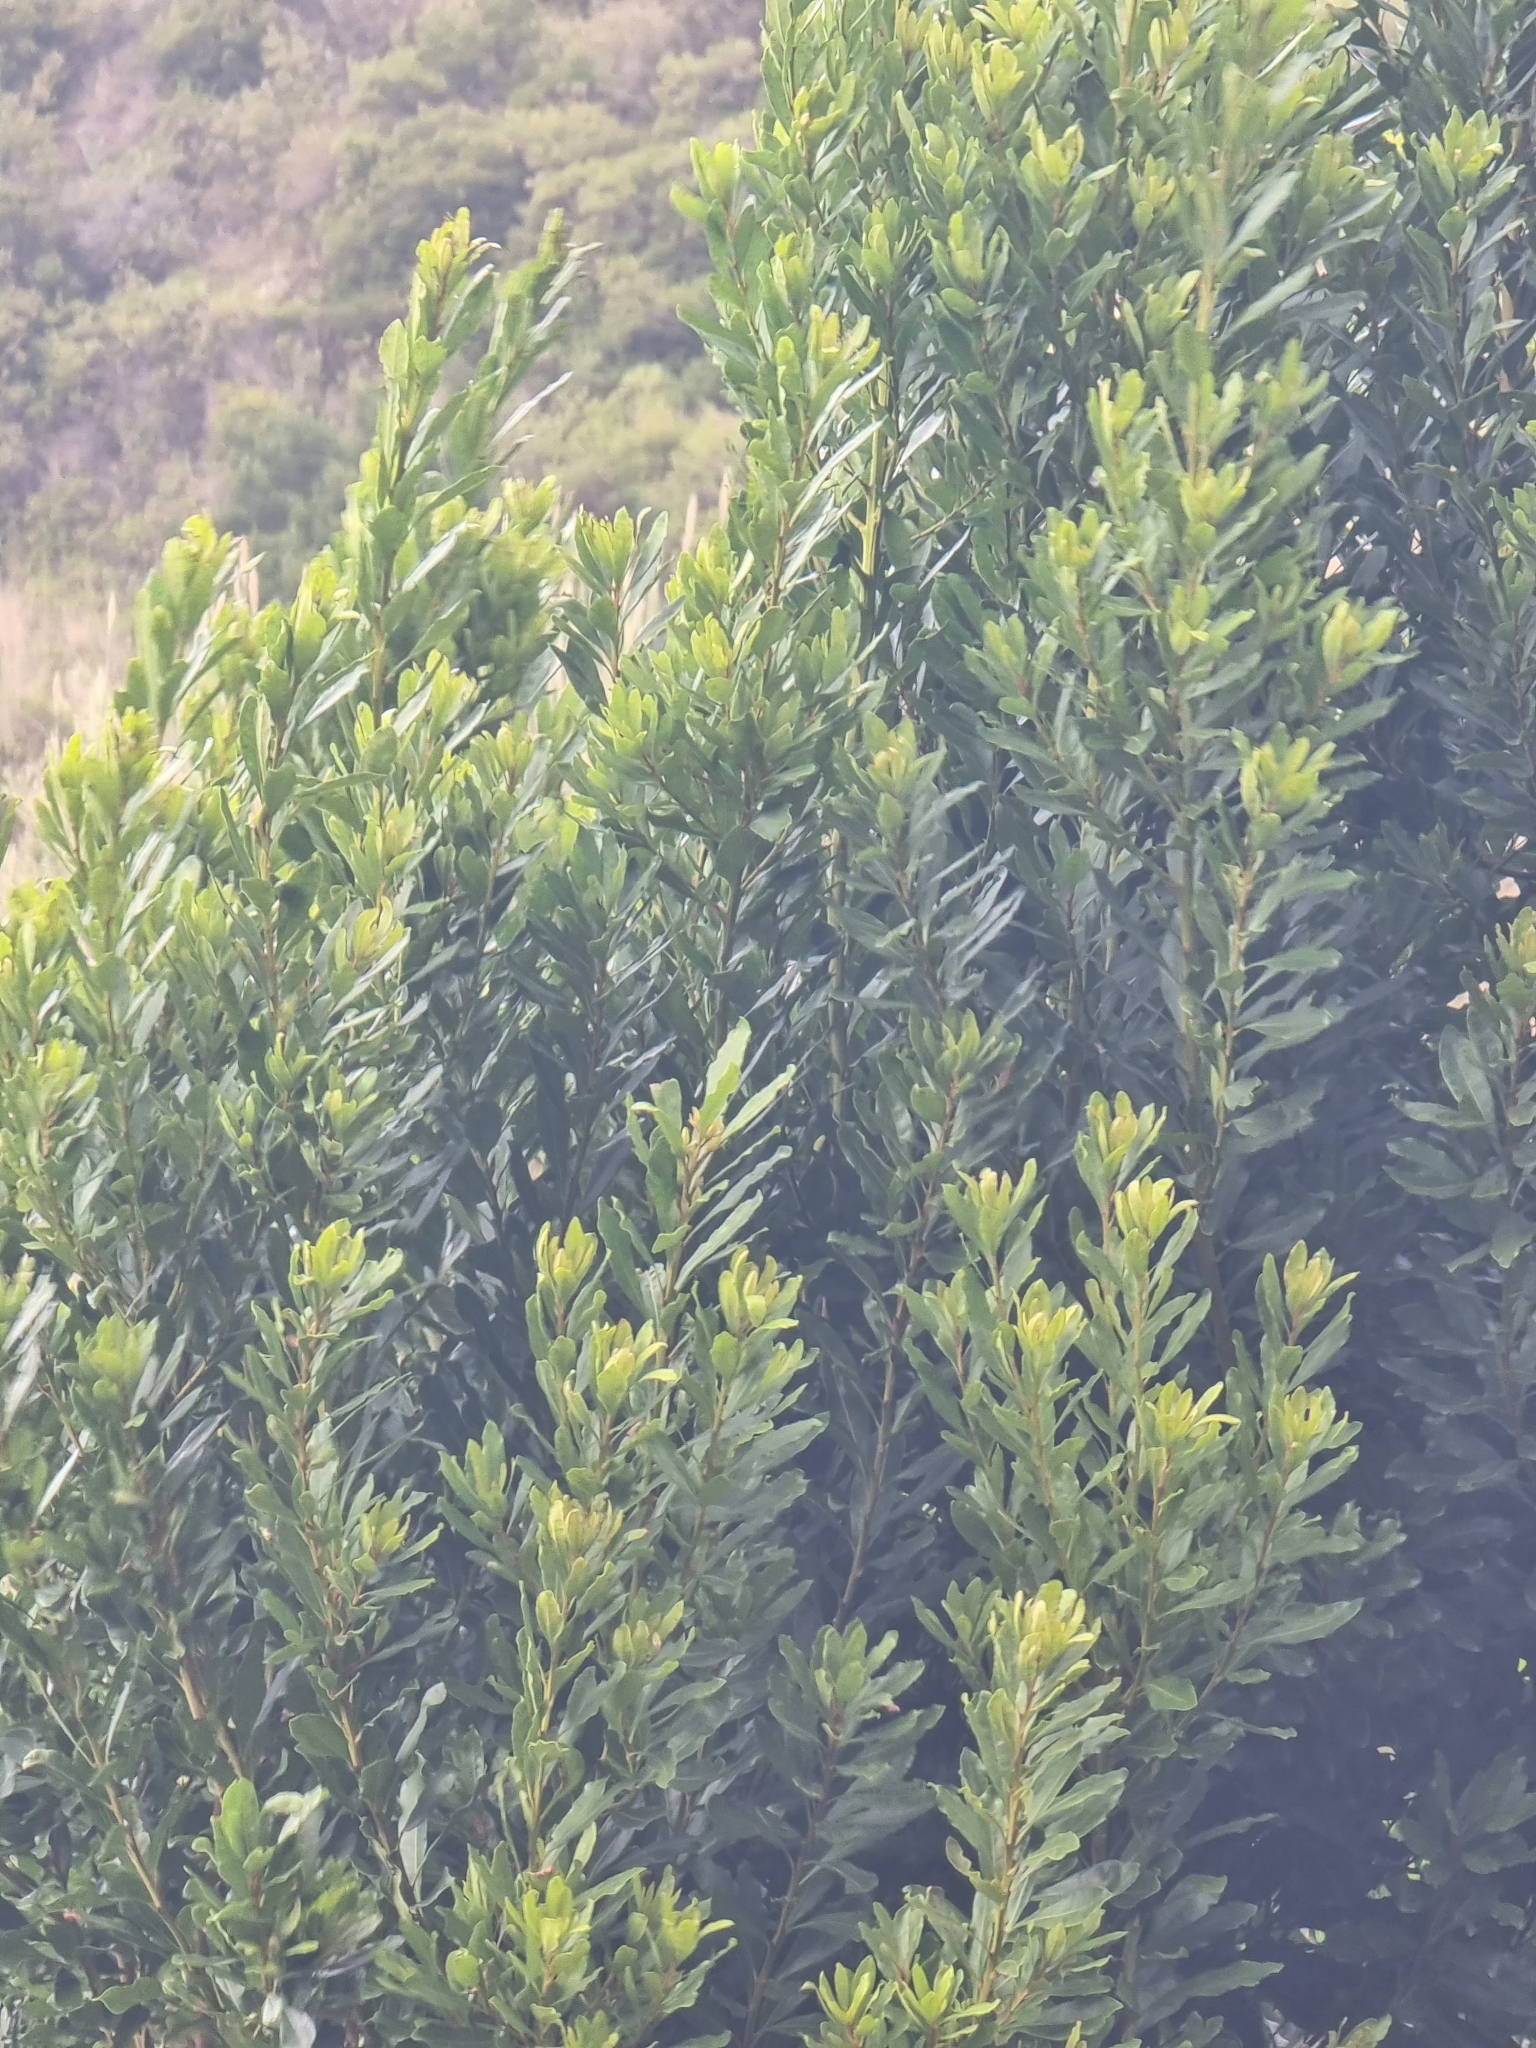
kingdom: Plantae
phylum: Tracheophyta
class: Magnoliopsida
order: Fagales
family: Myricaceae
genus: Morella
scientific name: Morella faya
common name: Firetree
